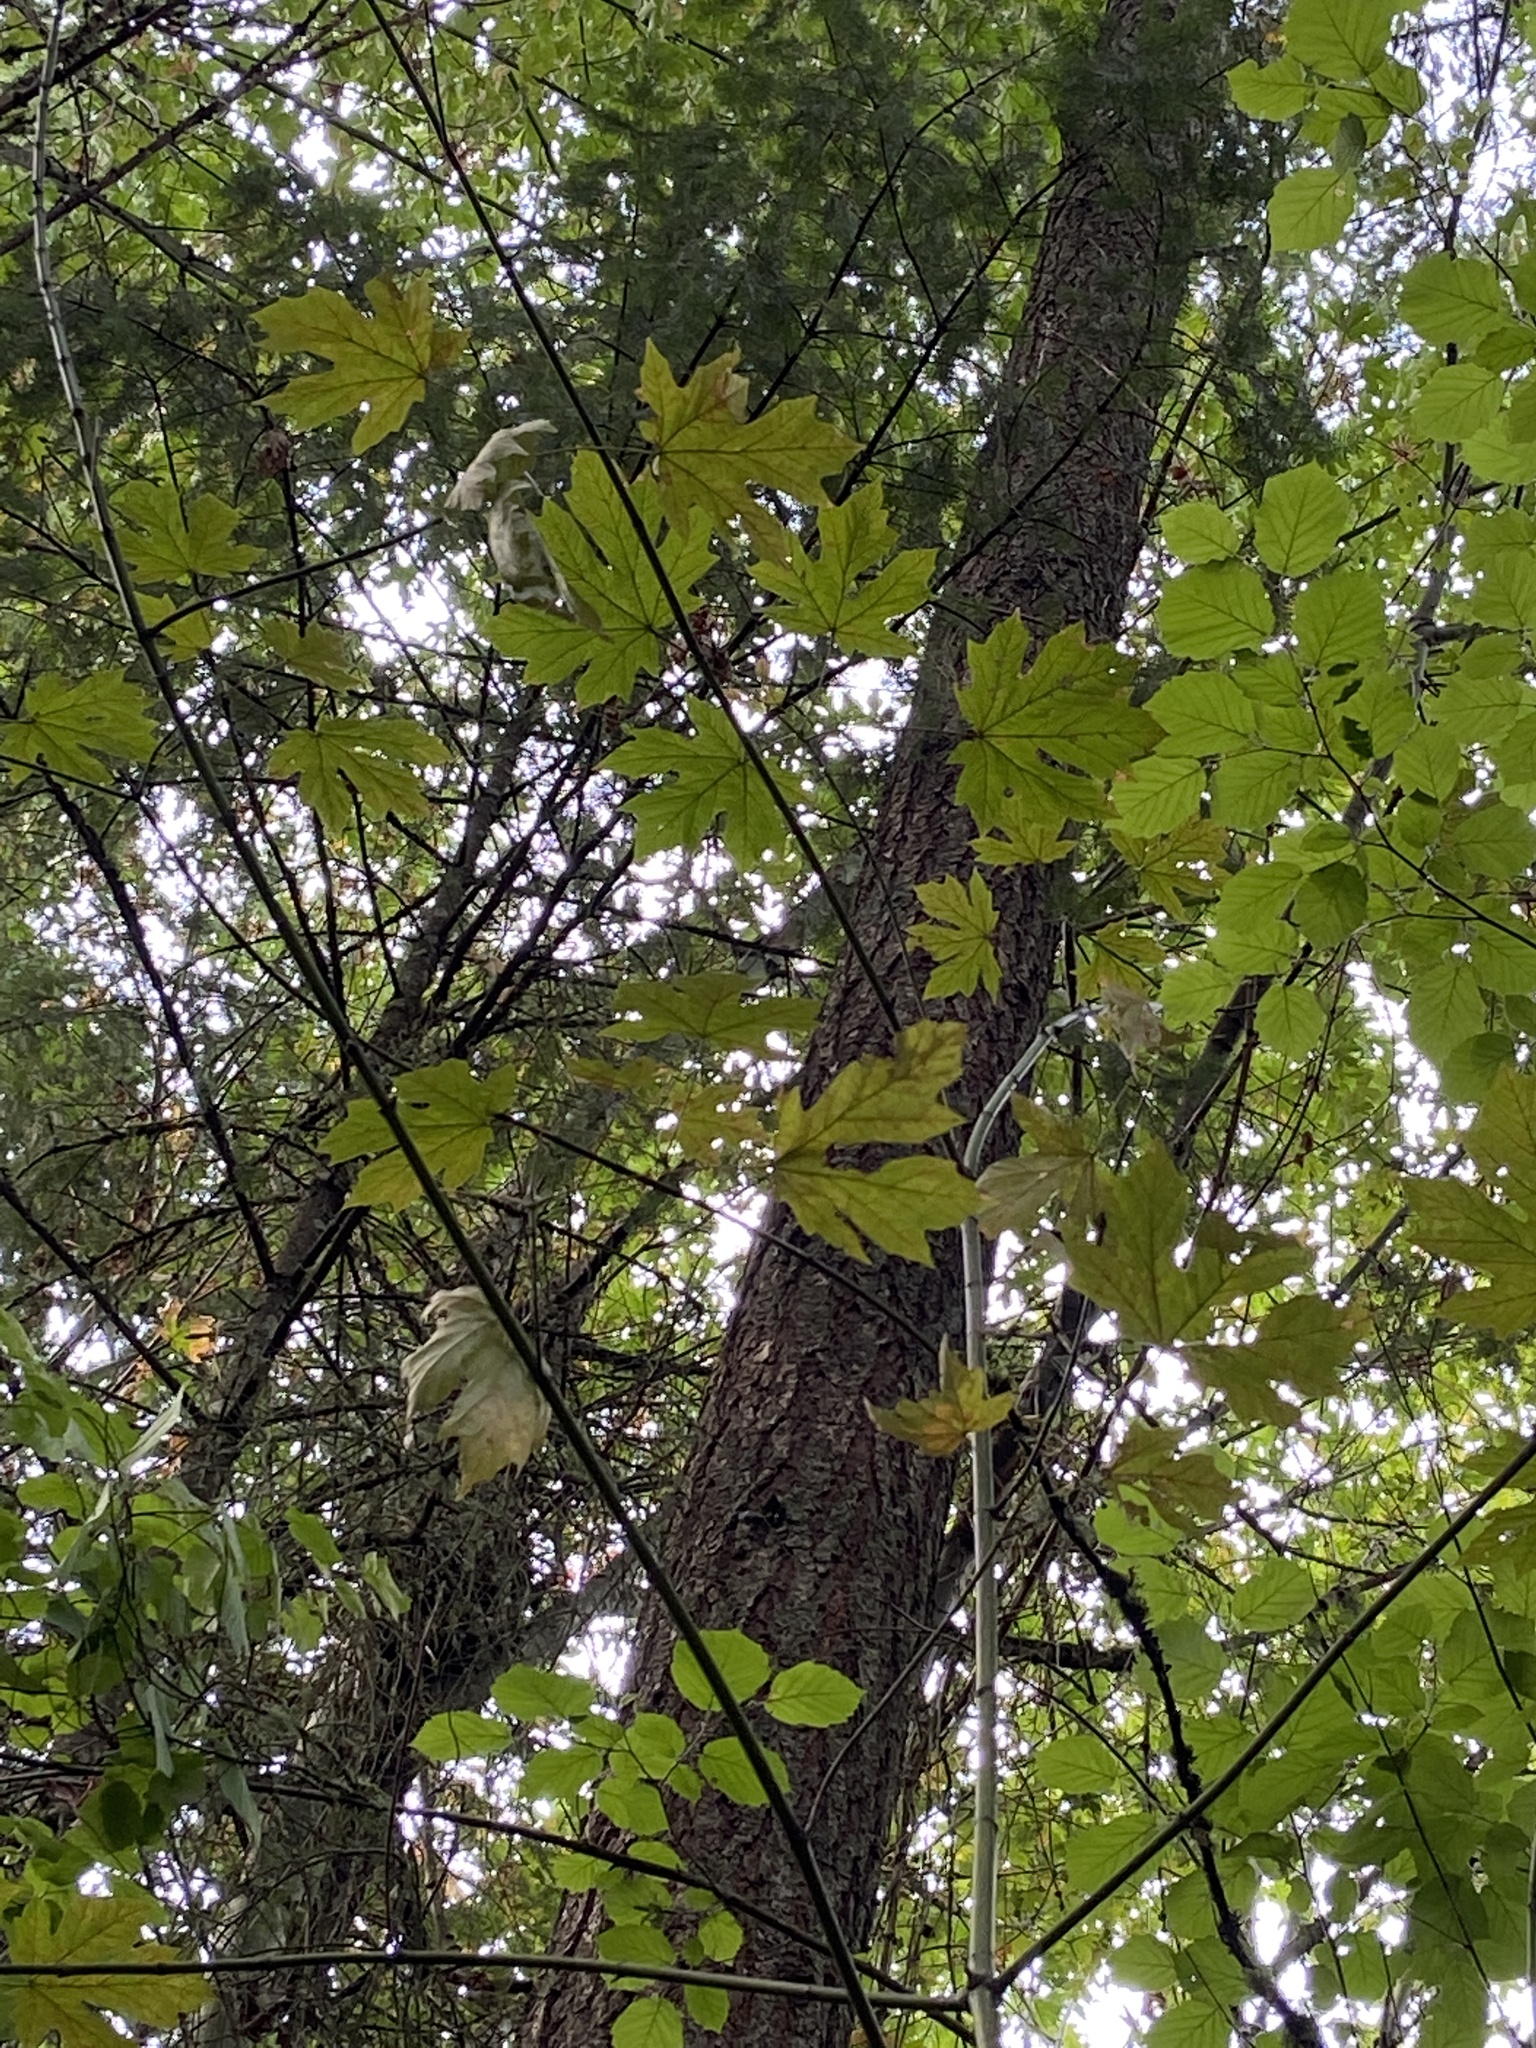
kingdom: Plantae
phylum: Tracheophyta
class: Magnoliopsida
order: Sapindales
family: Sapindaceae
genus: Acer
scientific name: Acer macrophyllum
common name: Oregon maple
